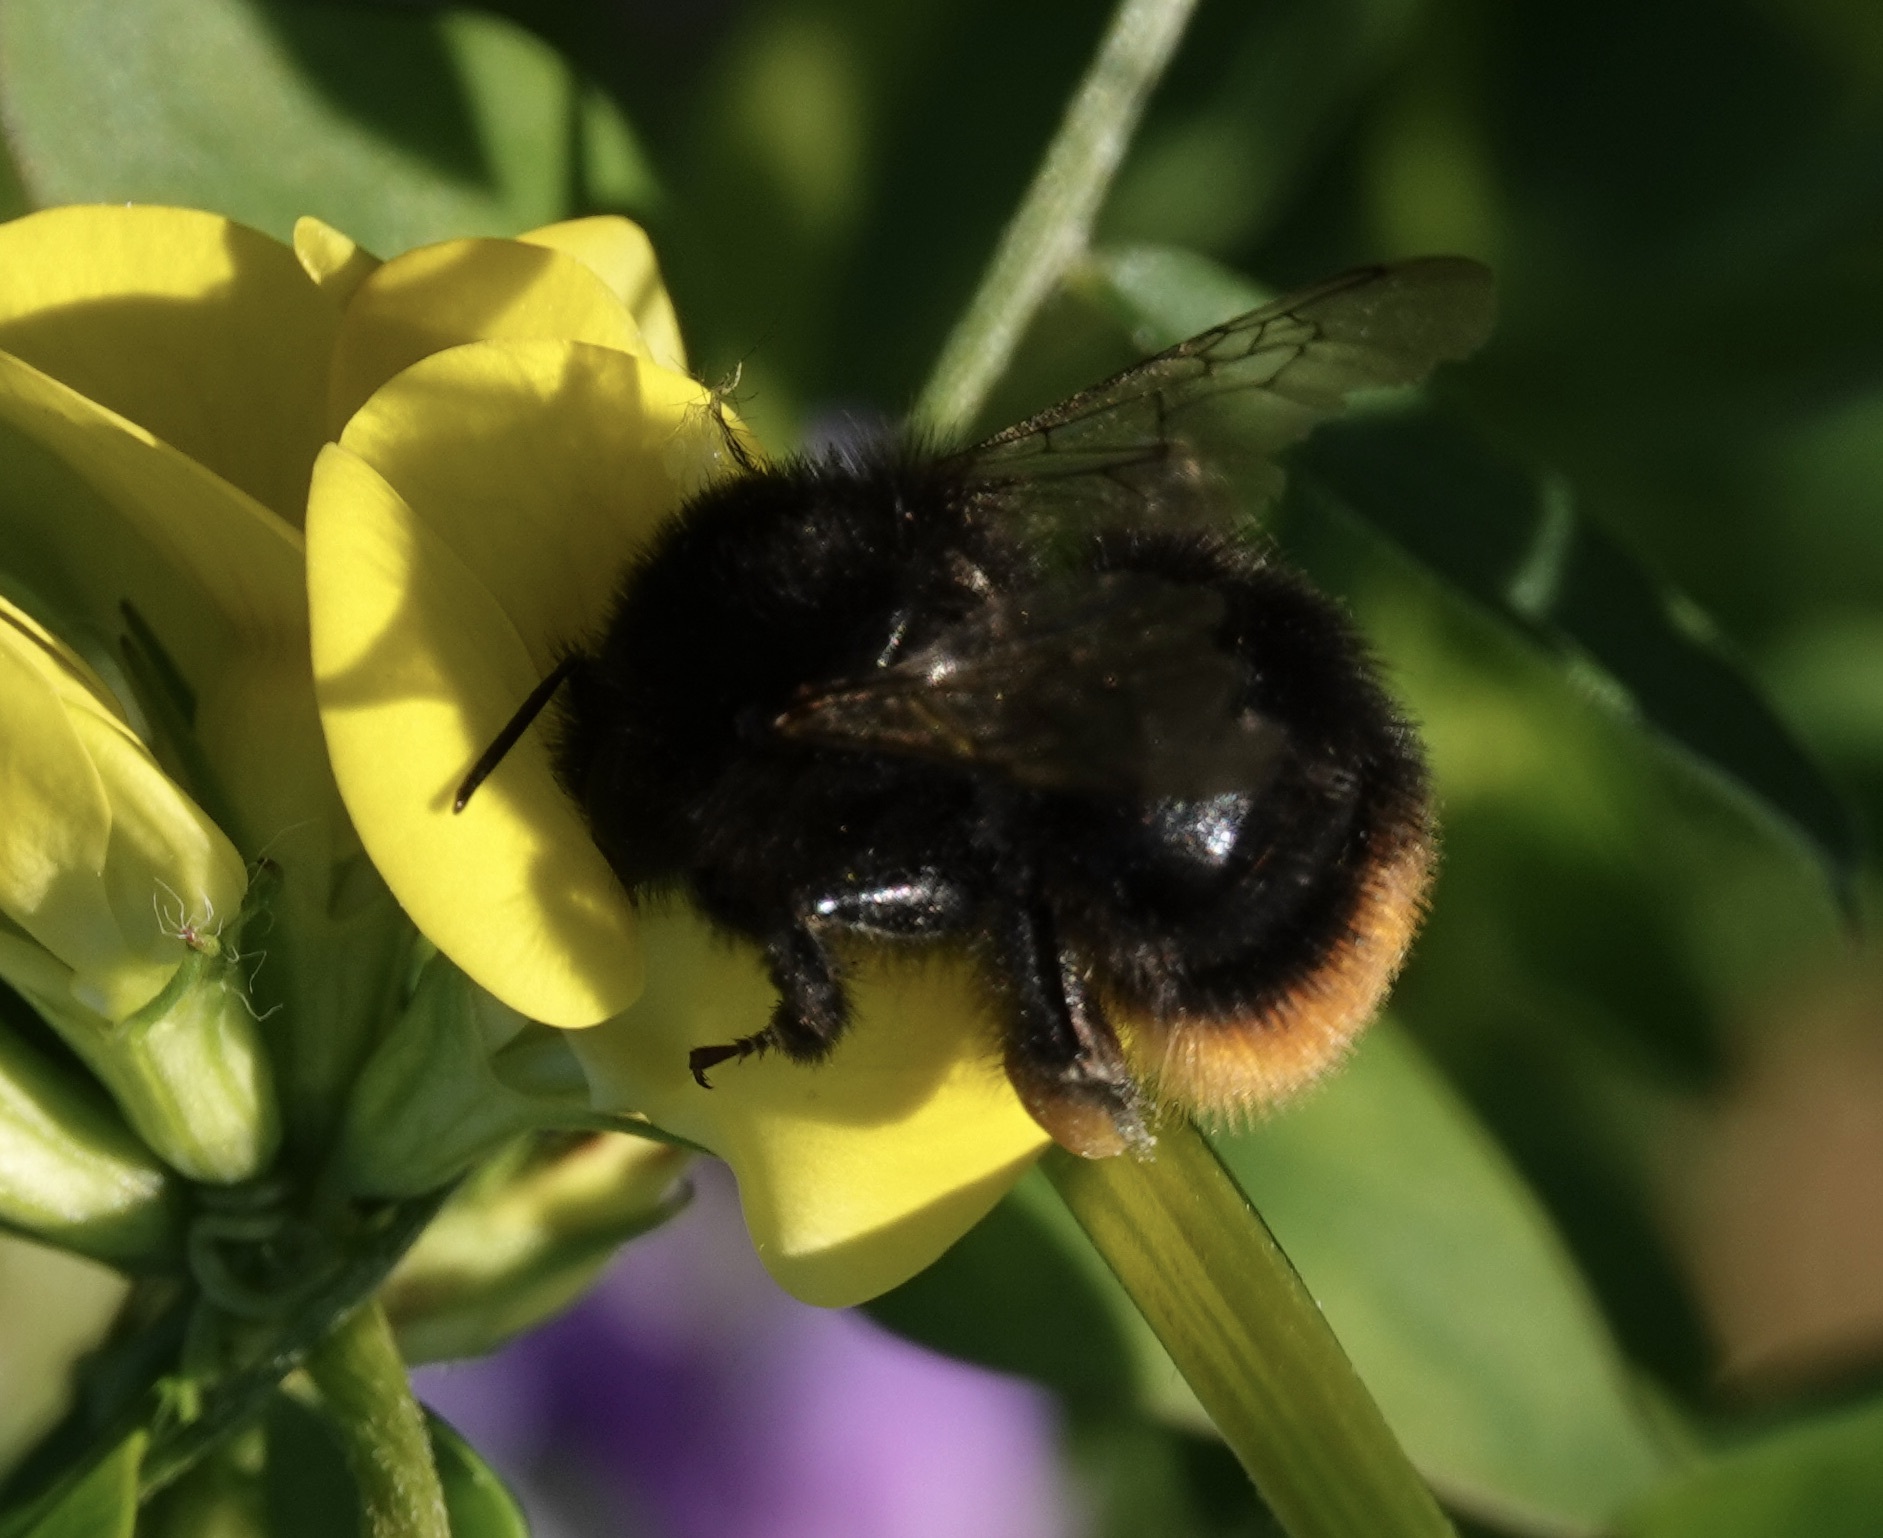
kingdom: Animalia
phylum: Arthropoda
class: Insecta
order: Hymenoptera
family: Apidae
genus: Bombus
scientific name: Bombus lapidarius
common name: Large red-tailed humble-bee
